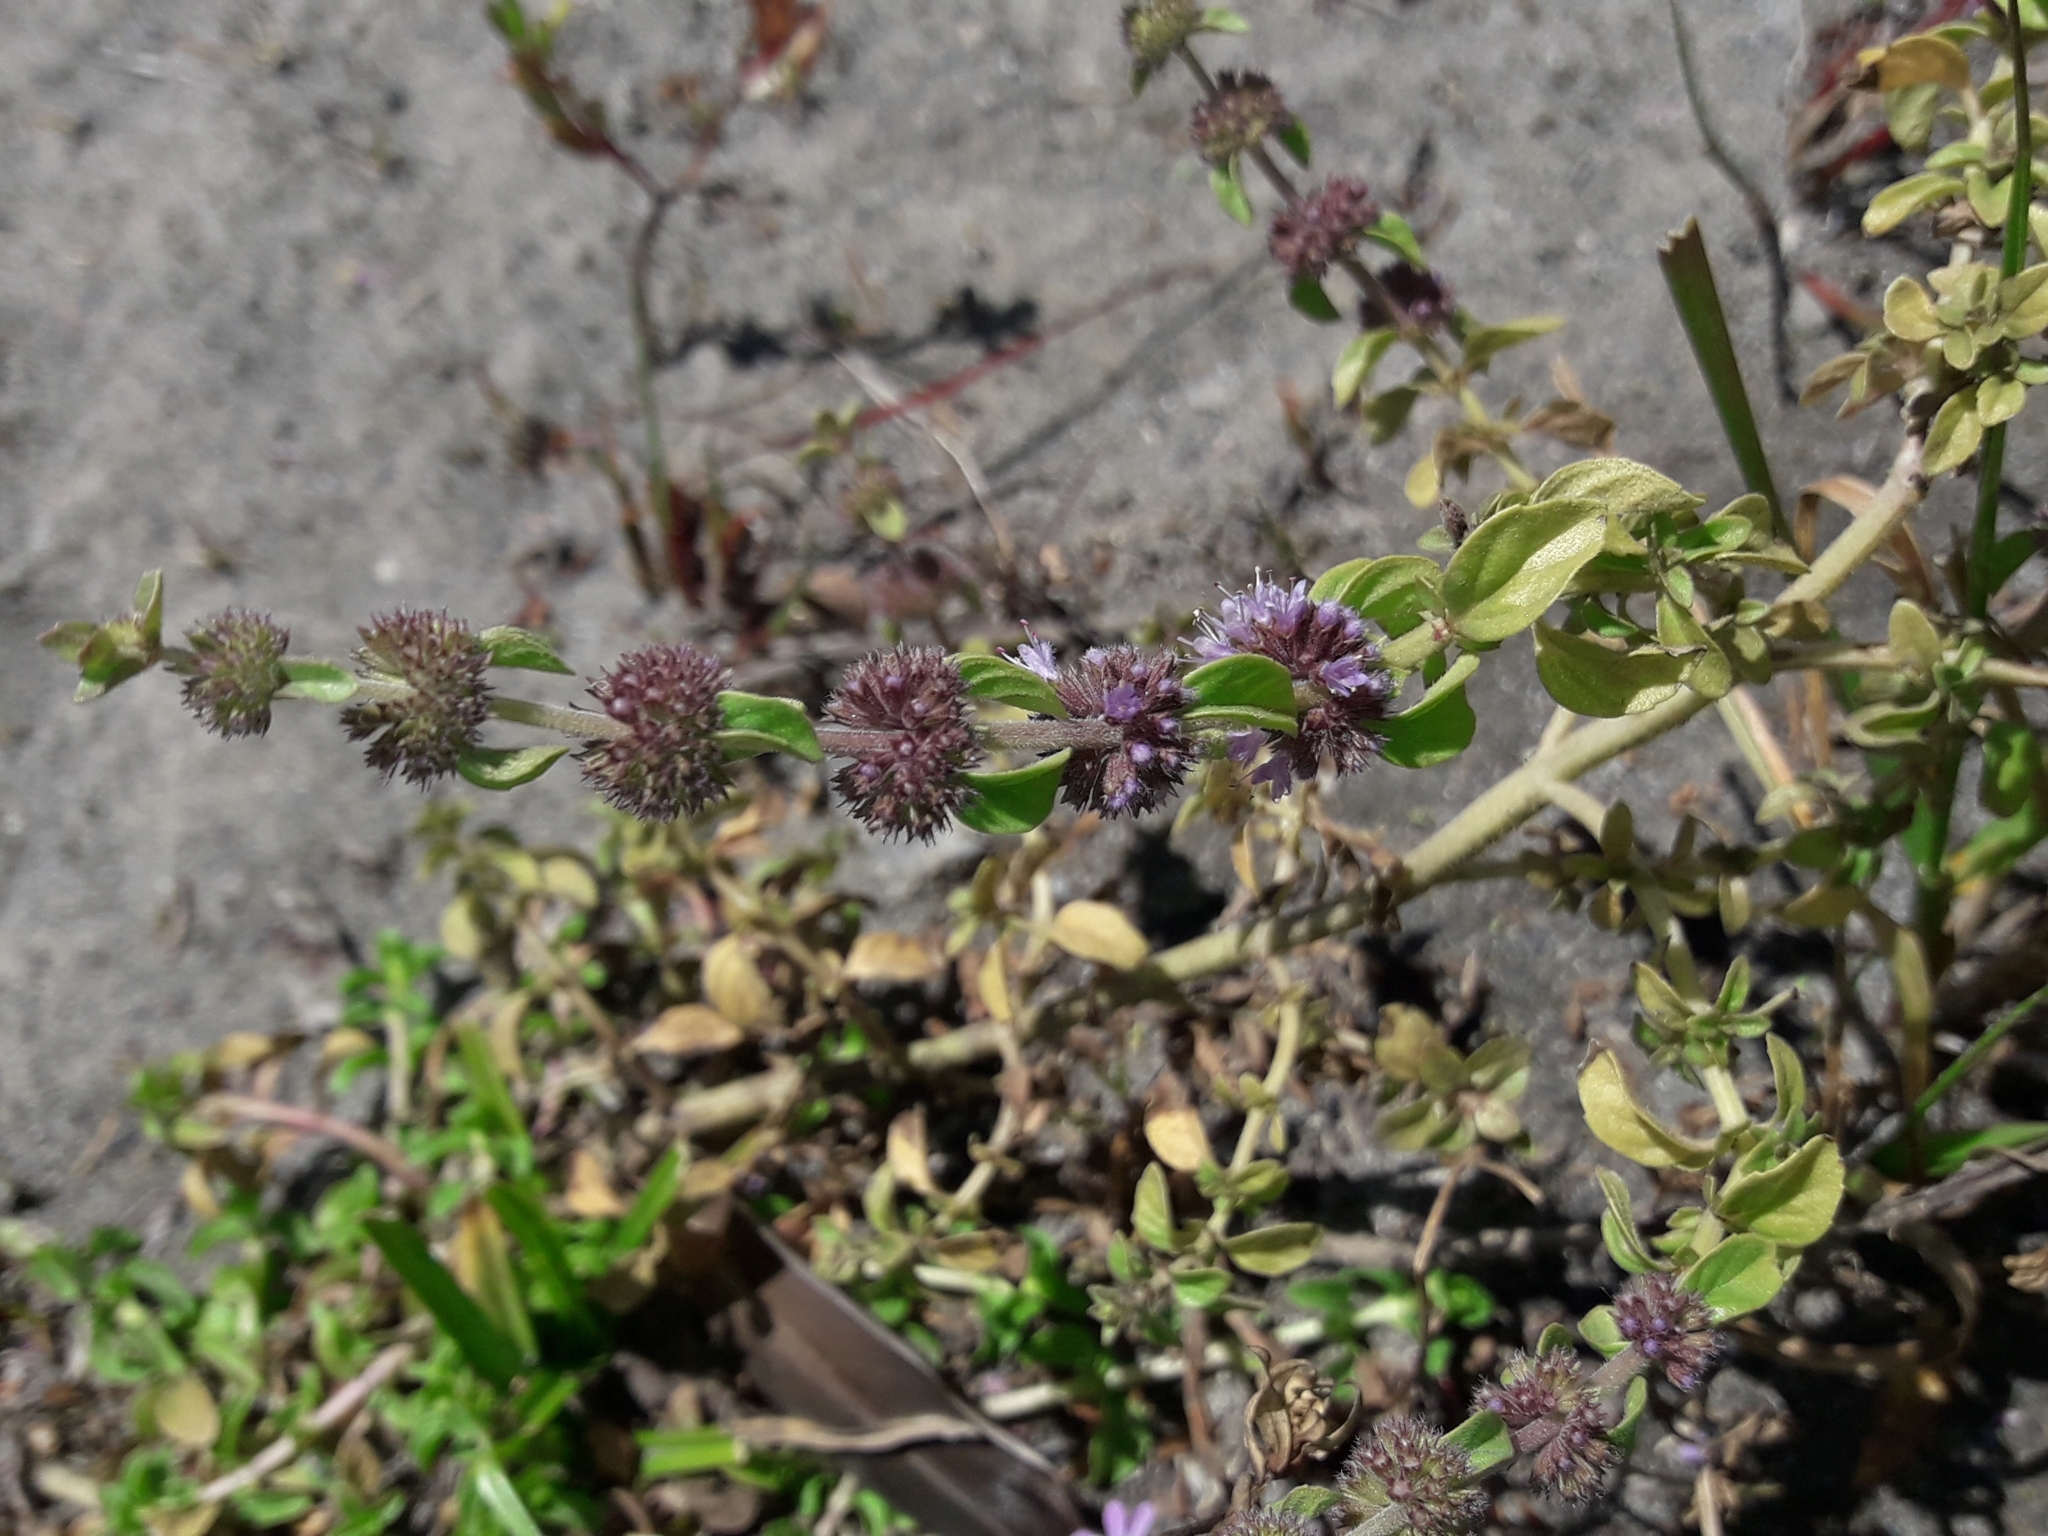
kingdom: Plantae
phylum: Tracheophyta
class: Magnoliopsida
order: Lamiales
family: Lamiaceae
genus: Mentha
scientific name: Mentha pulegium
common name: Pennyroyal
